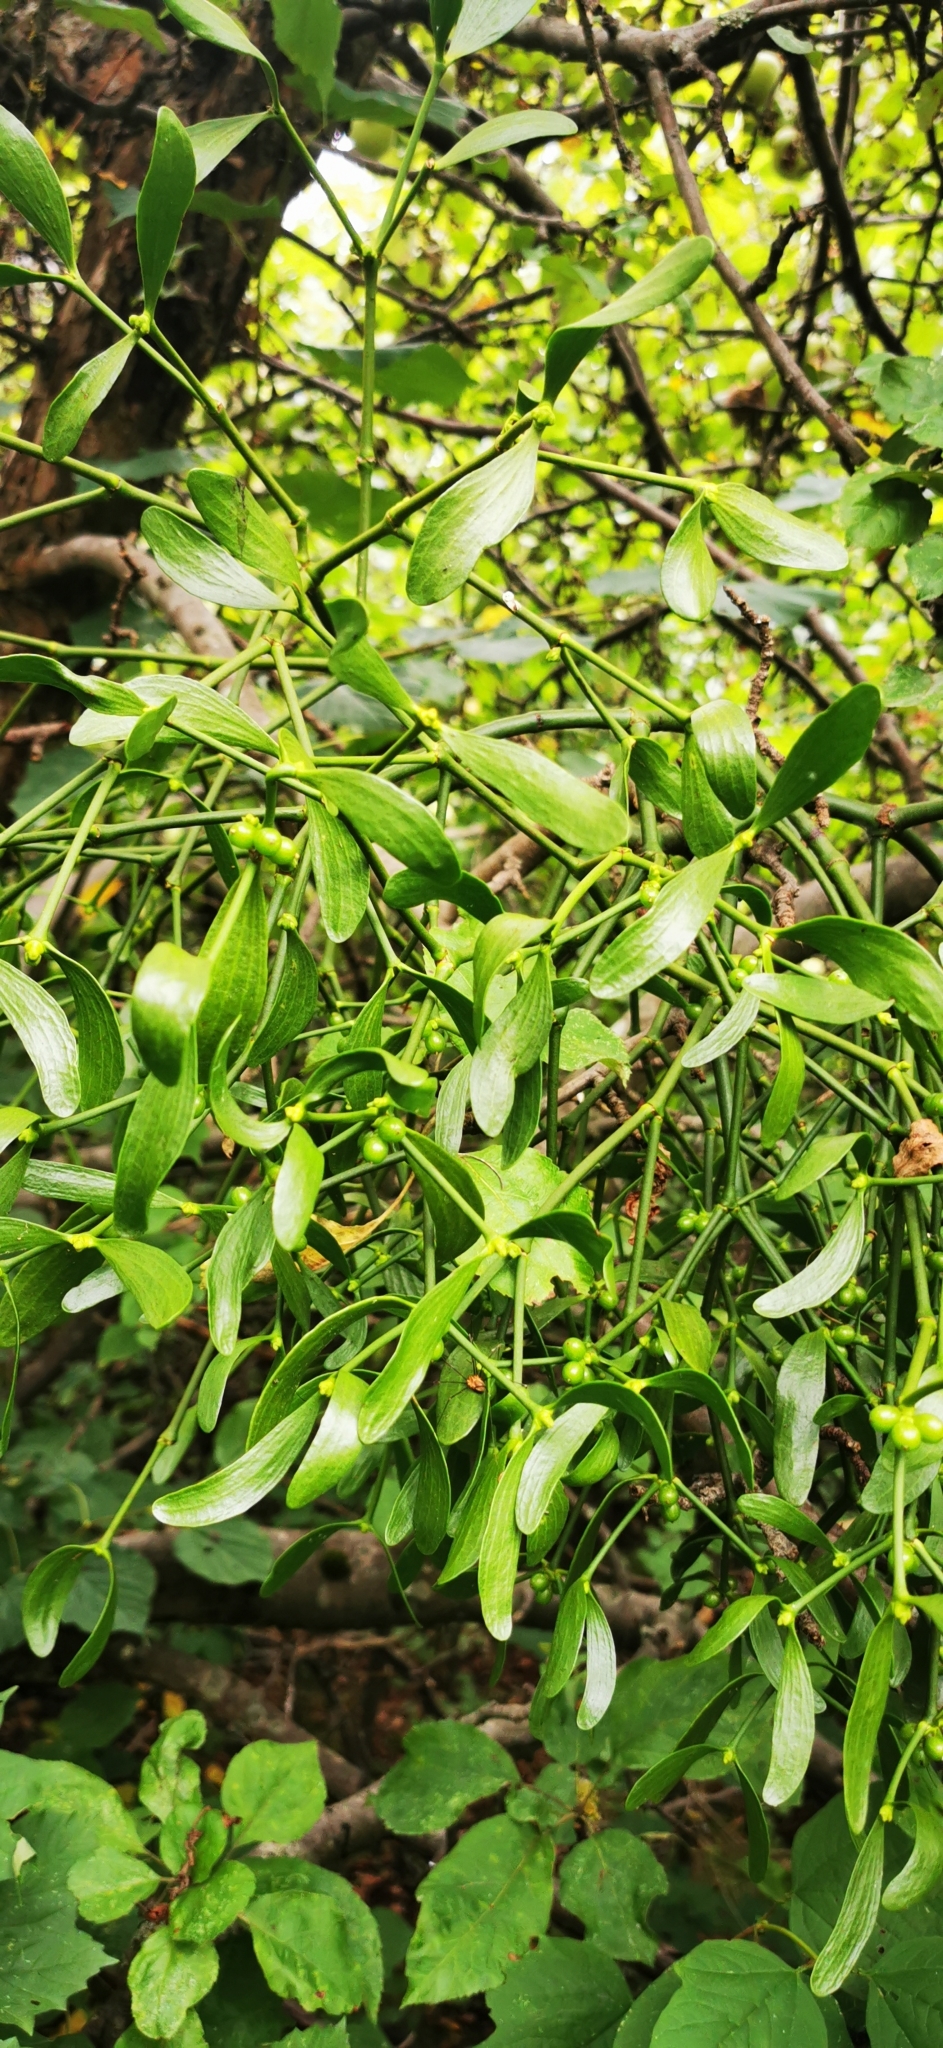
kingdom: Plantae
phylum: Tracheophyta
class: Magnoliopsida
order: Santalales
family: Viscaceae
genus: Viscum
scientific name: Viscum album
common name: Mistletoe
